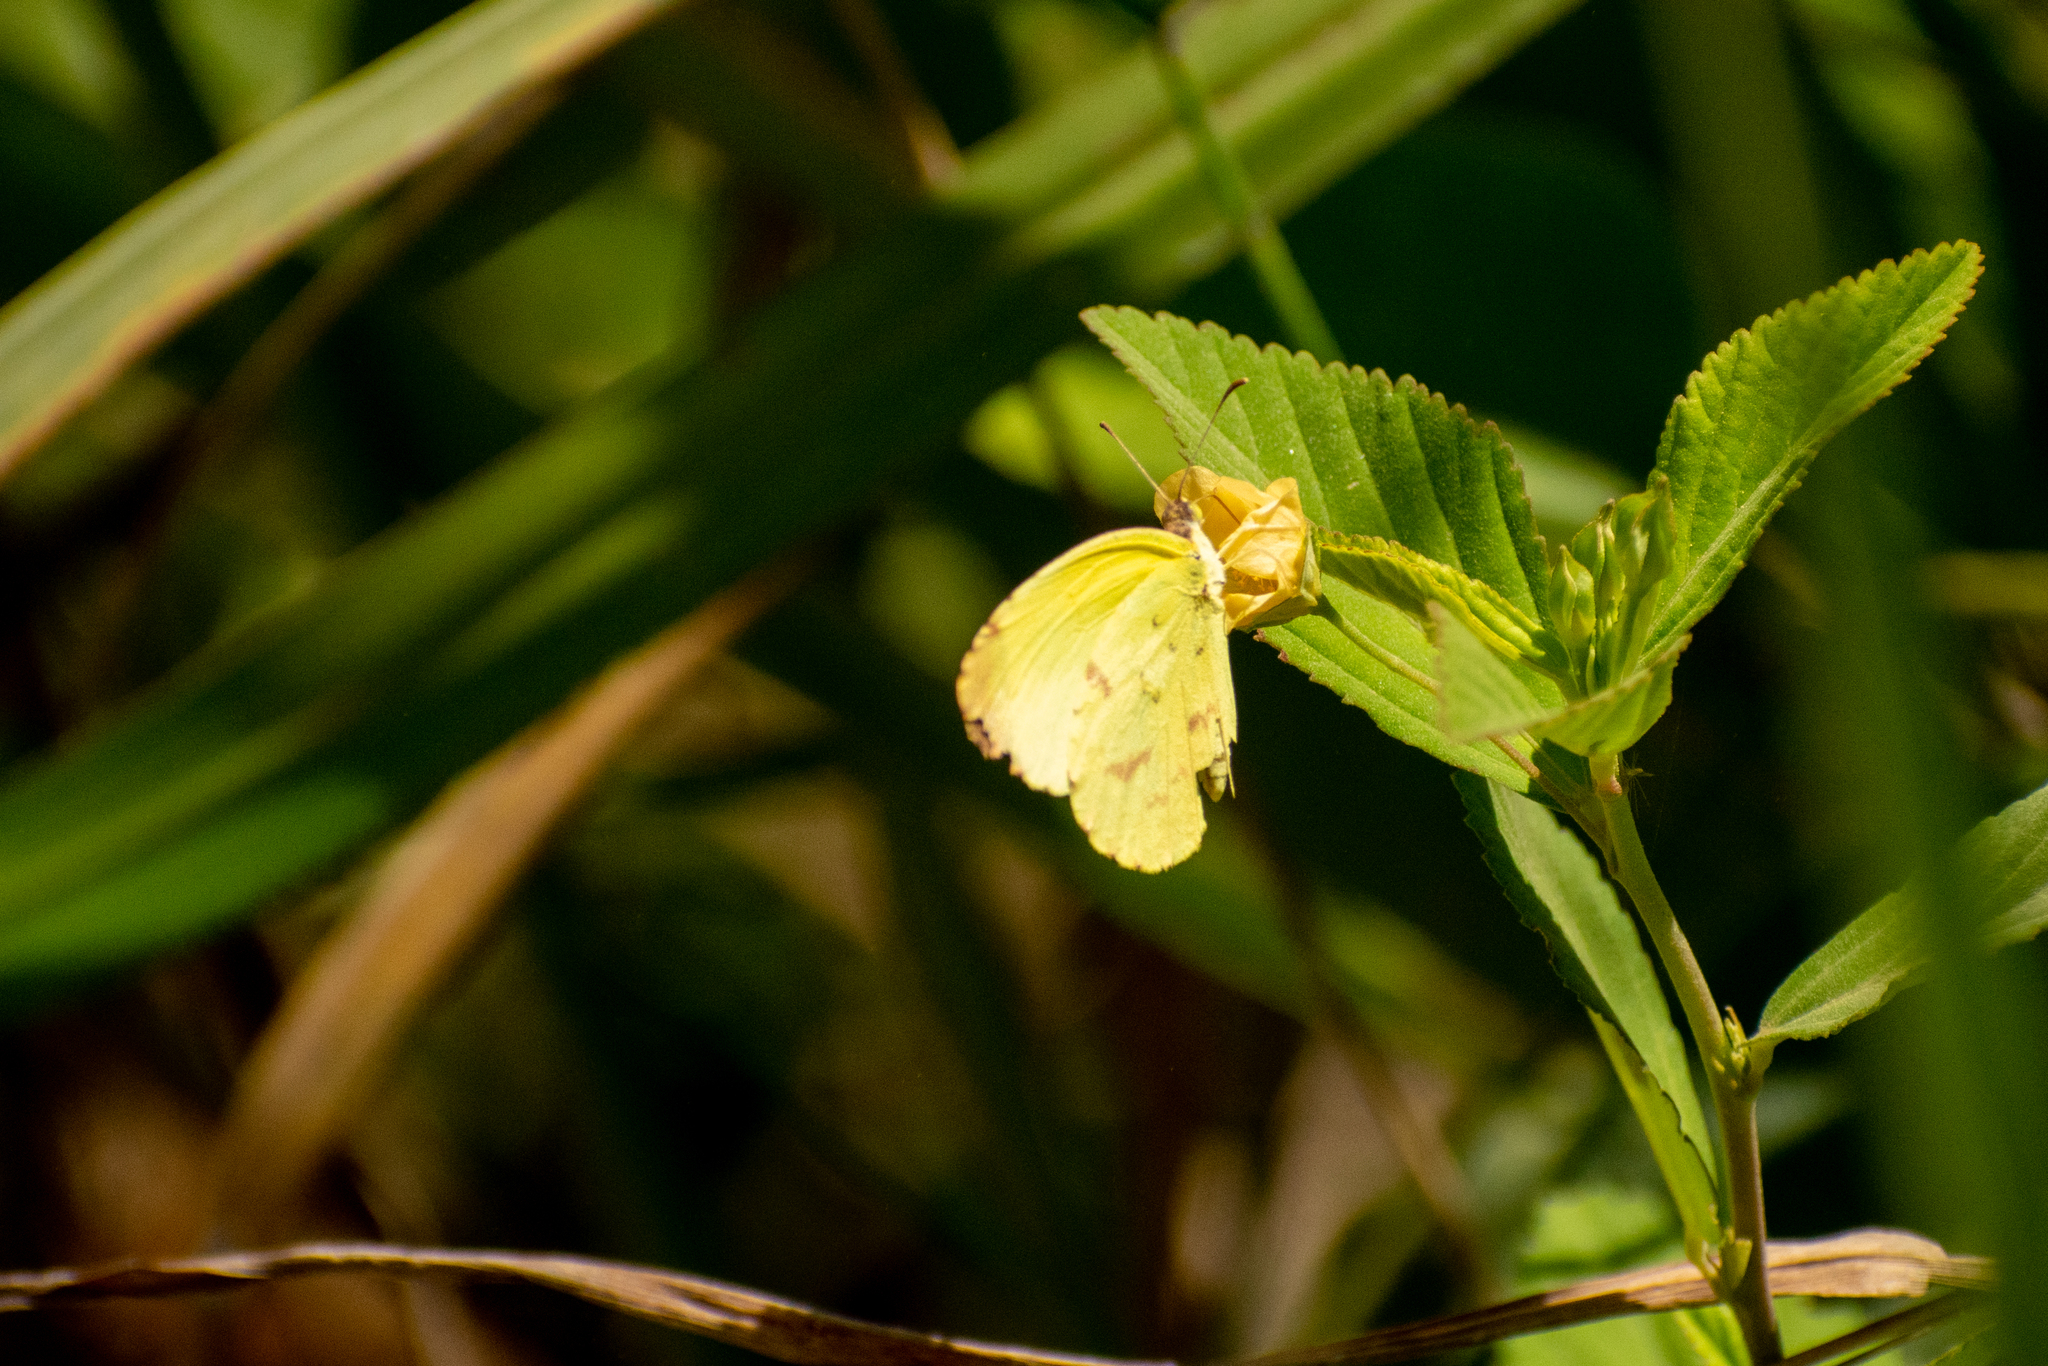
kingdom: Animalia
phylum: Arthropoda
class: Insecta
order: Lepidoptera
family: Pieridae
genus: Teriocolias
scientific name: Teriocolias
